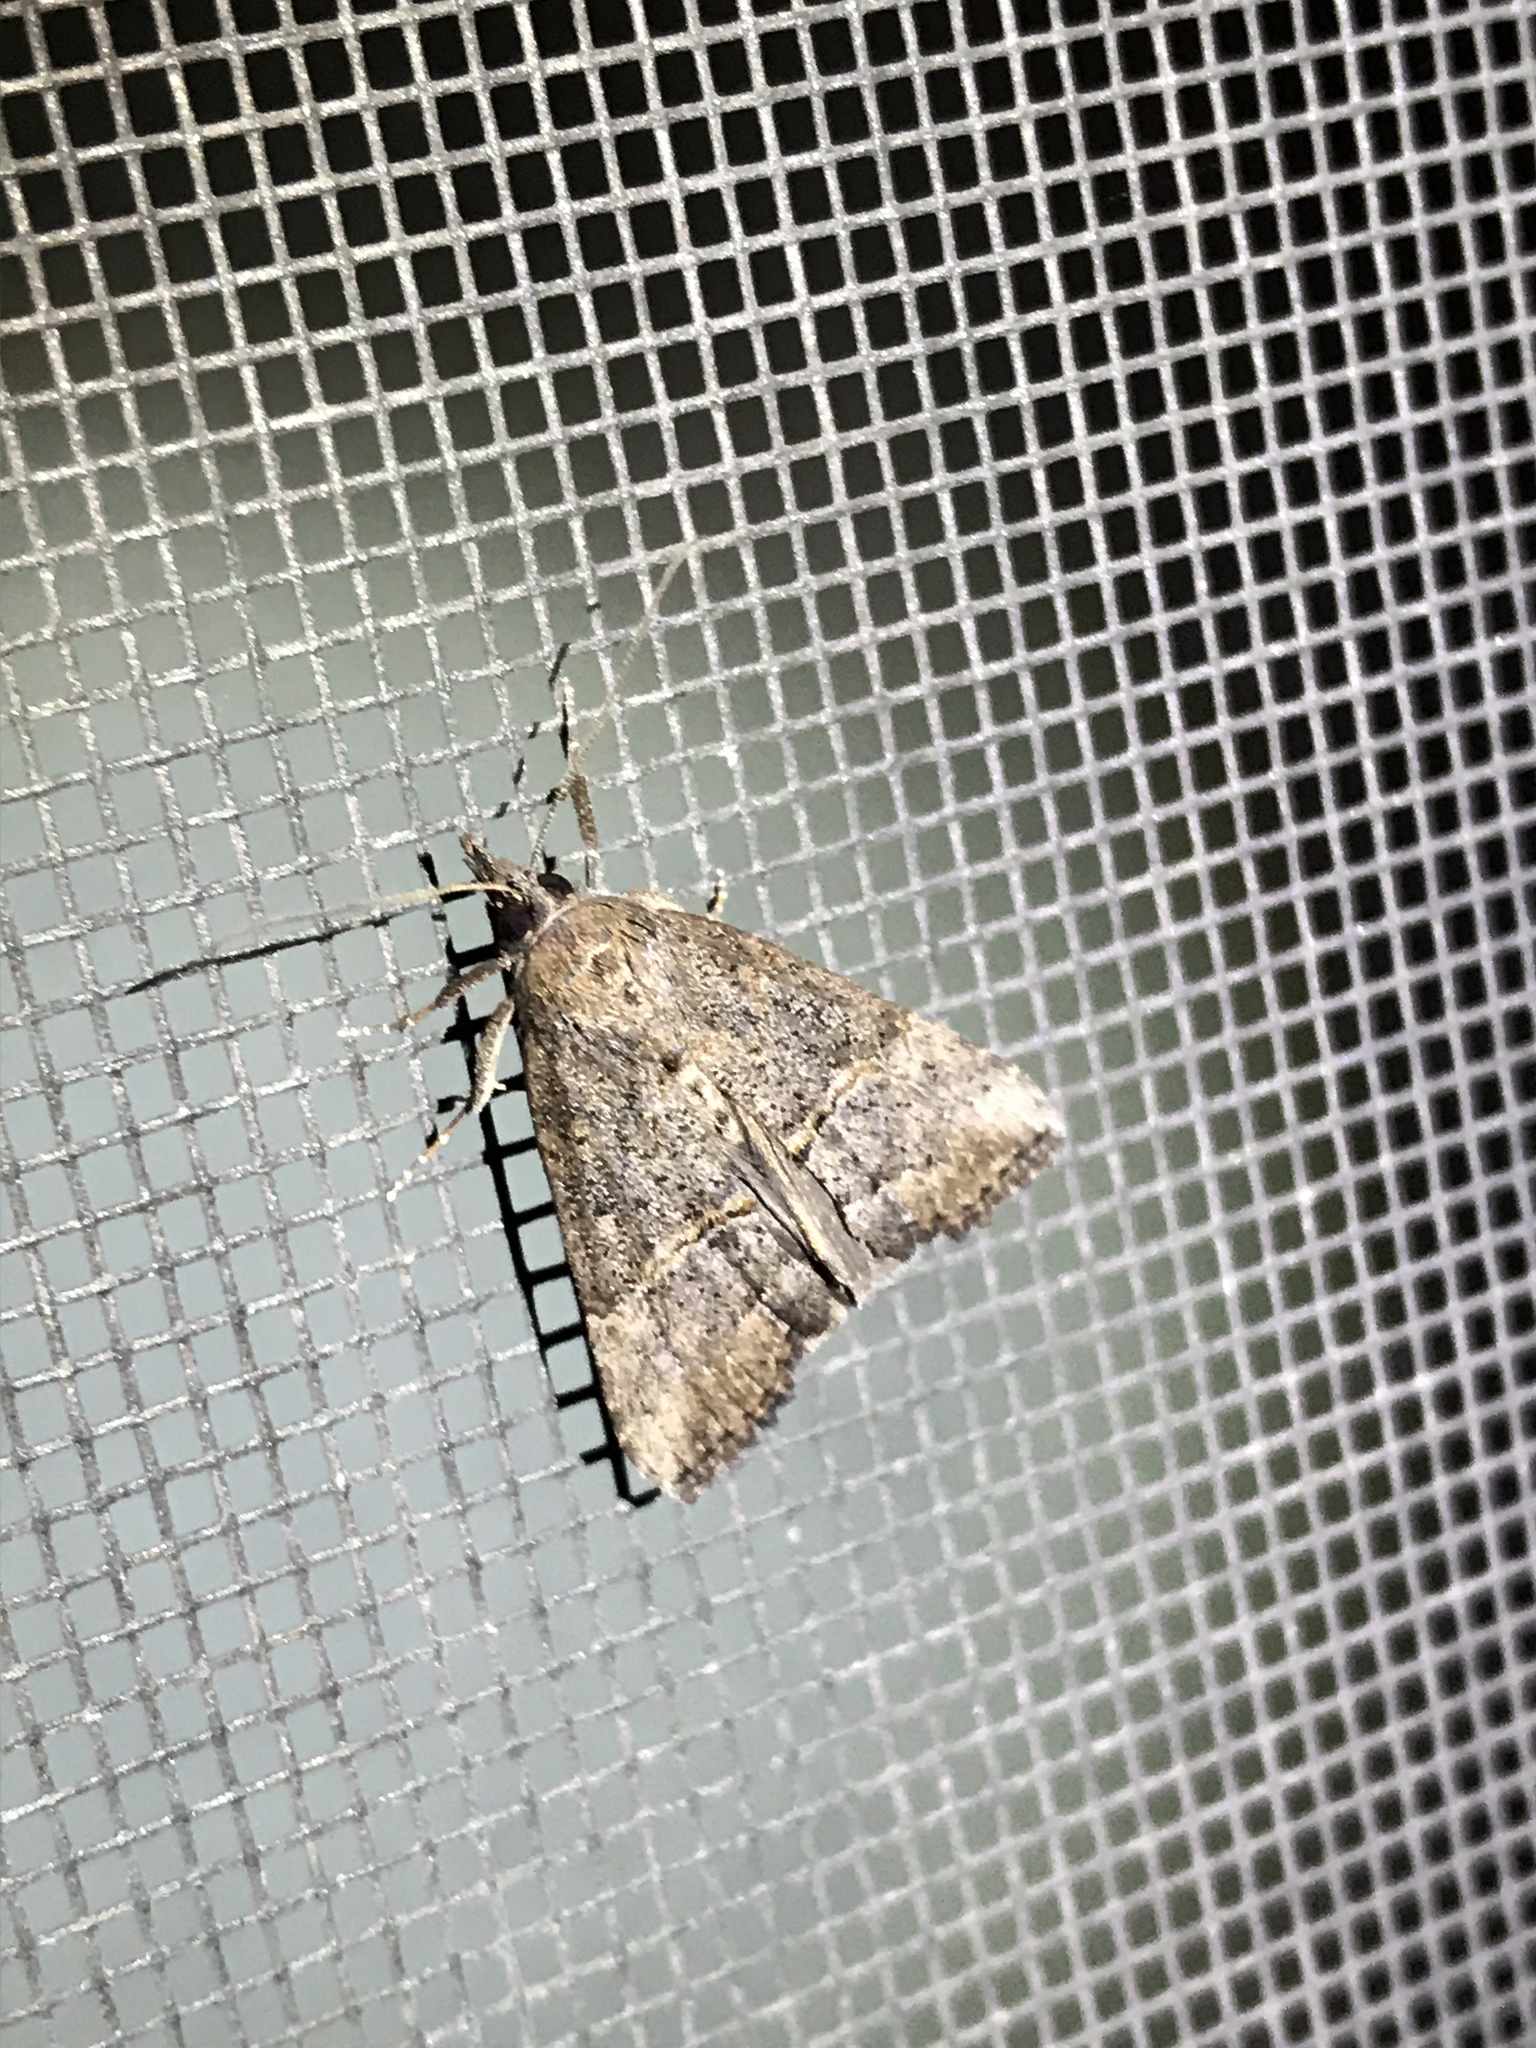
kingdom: Animalia
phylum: Arthropoda
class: Insecta
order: Lepidoptera
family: Erebidae
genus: Hypena
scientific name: Hypena scabra
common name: Green cloverworm
